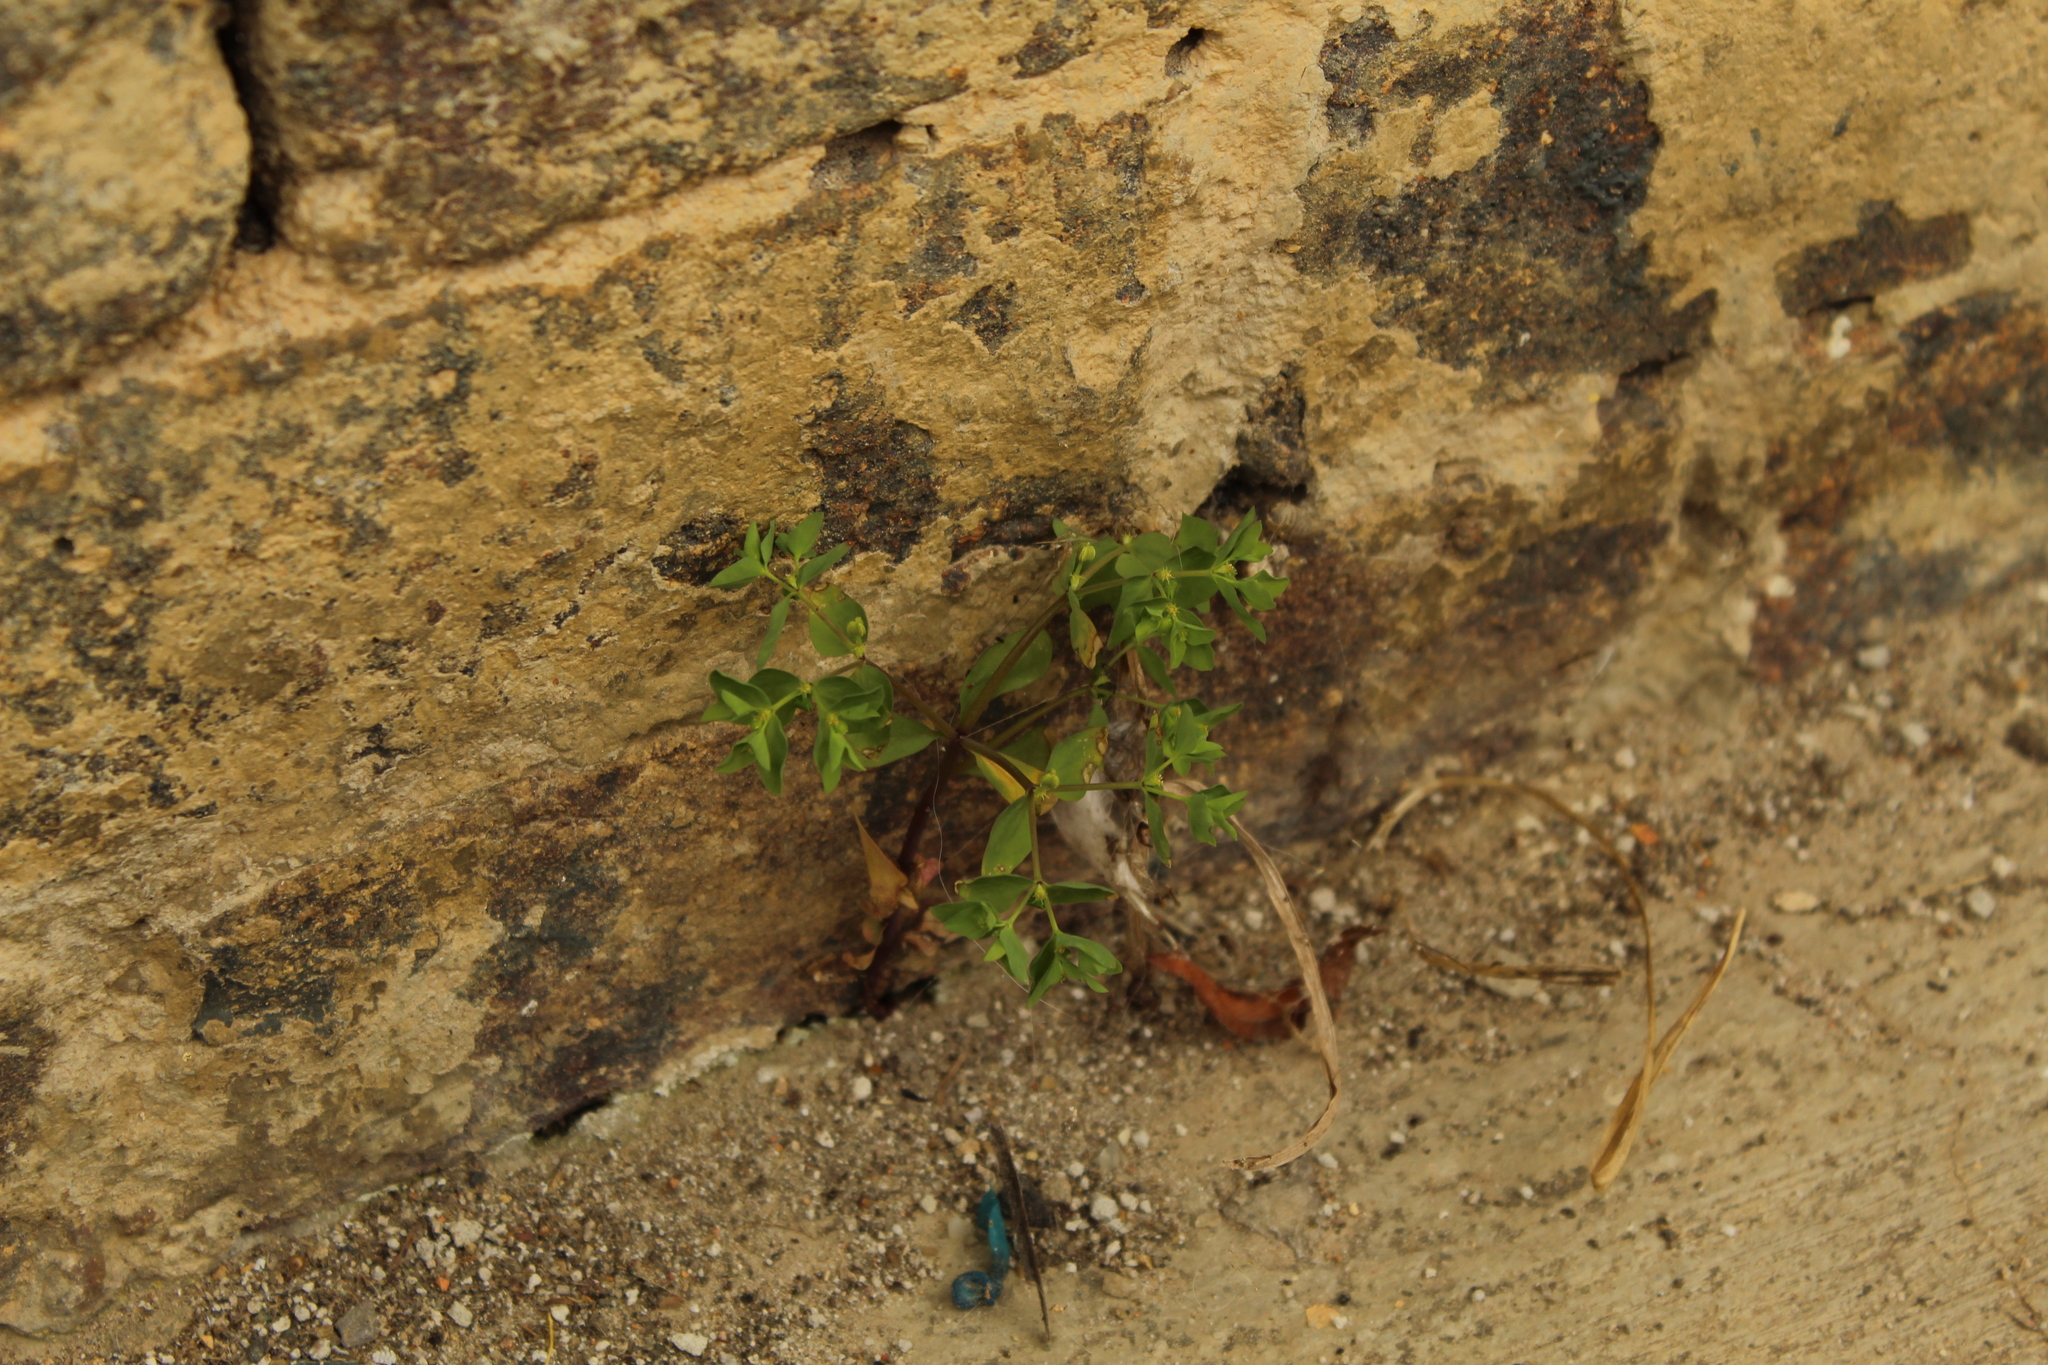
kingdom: Plantae
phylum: Tracheophyta
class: Magnoliopsida
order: Malpighiales
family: Euphorbiaceae
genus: Euphorbia
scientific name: Euphorbia peplus
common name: Petty spurge
